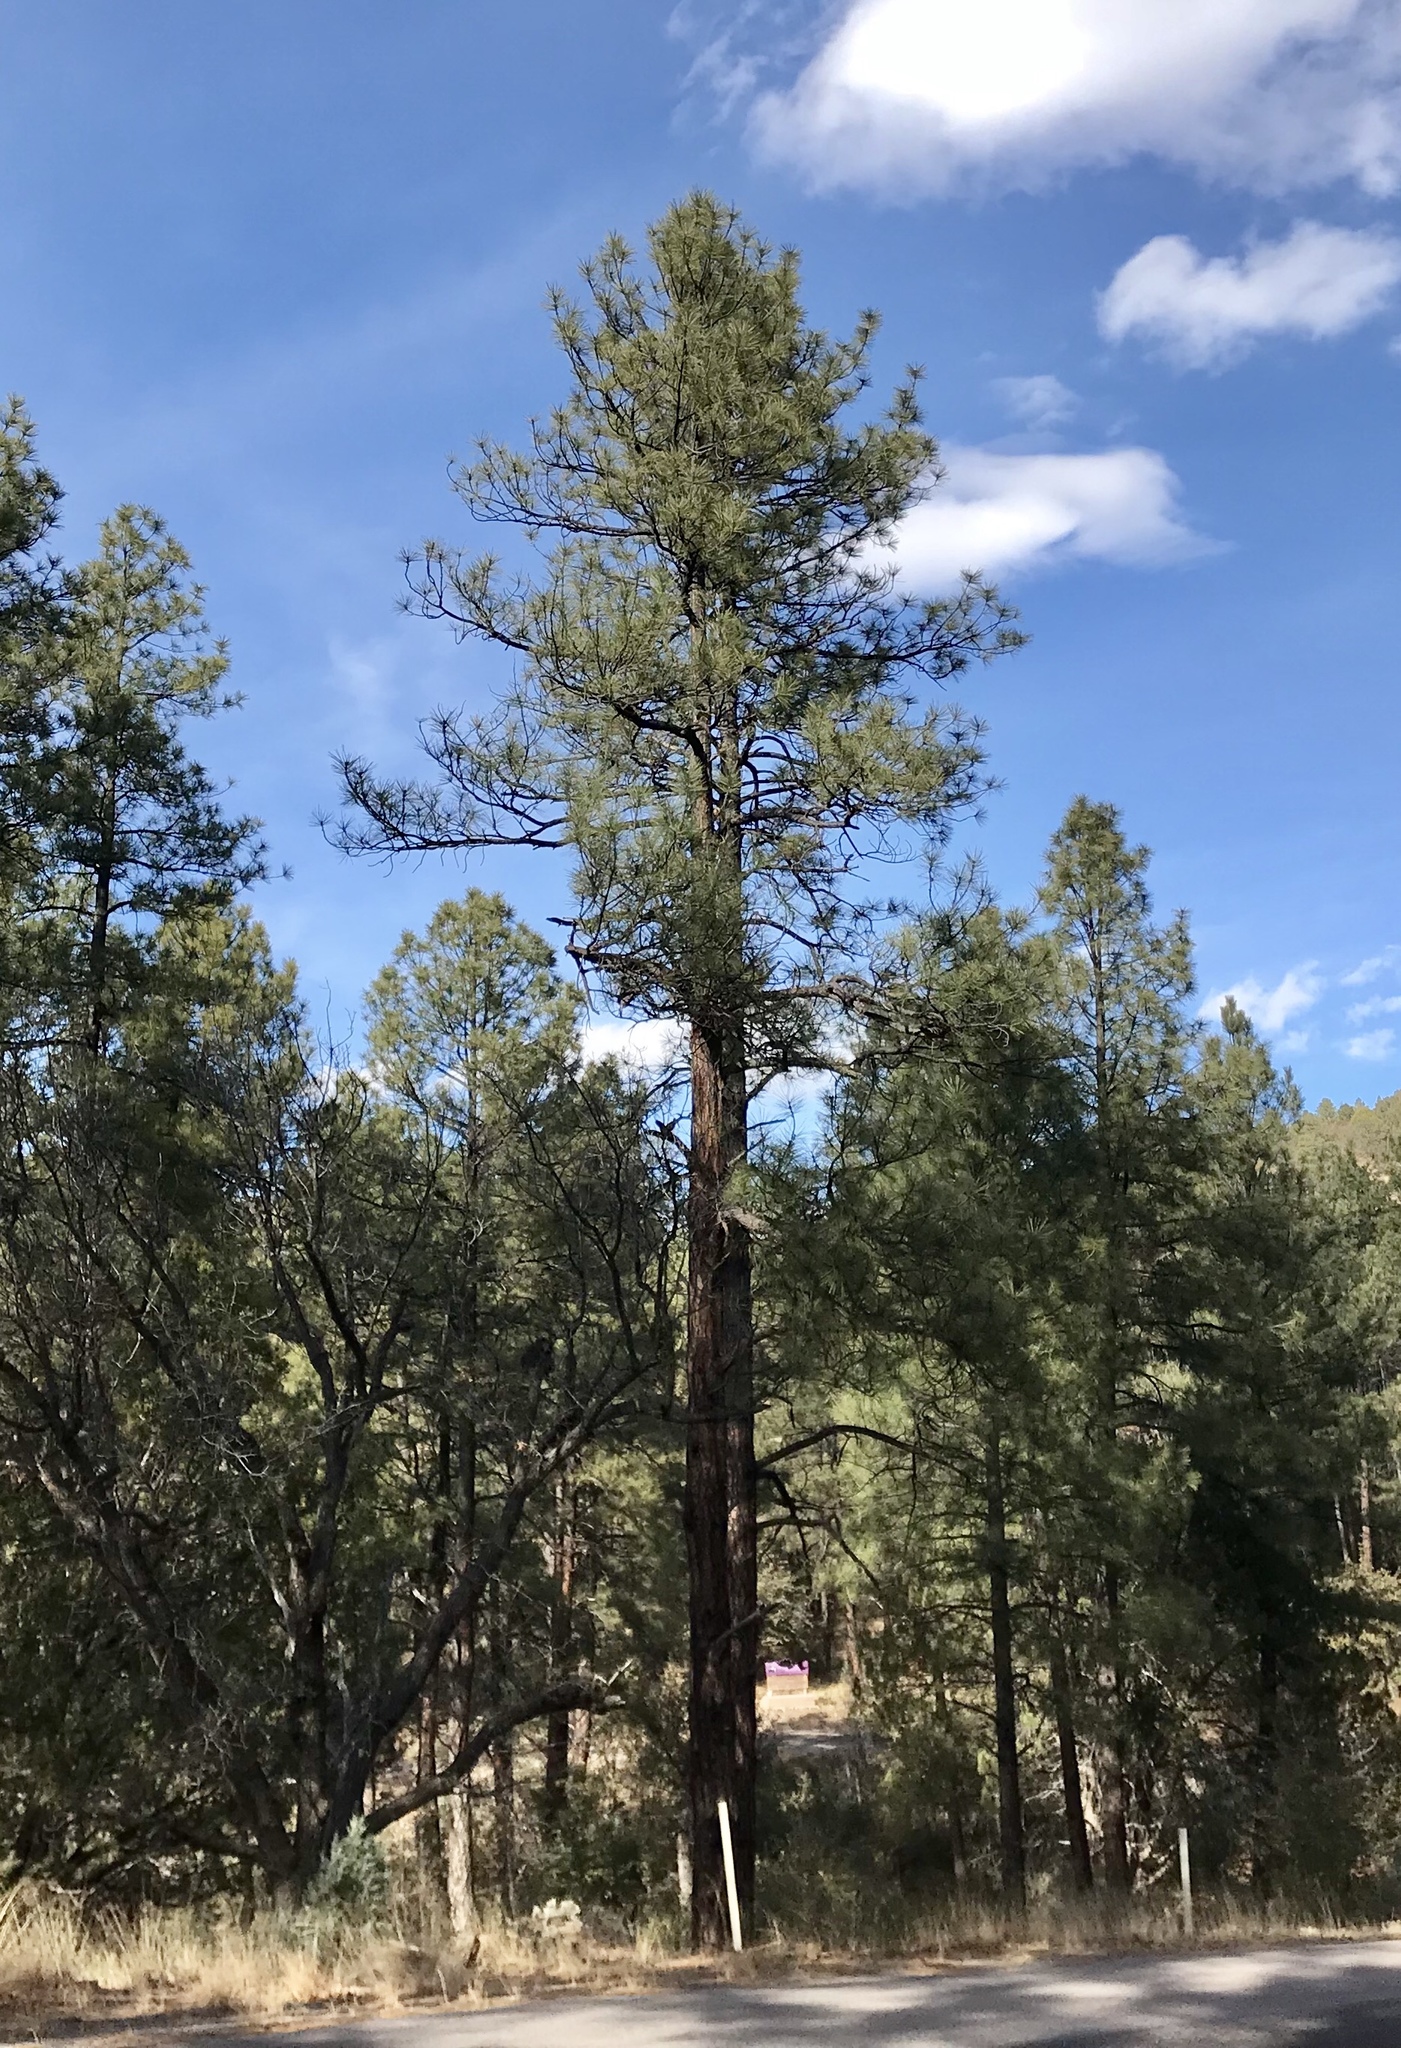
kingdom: Plantae
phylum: Tracheophyta
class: Pinopsida
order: Pinales
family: Pinaceae
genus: Pinus
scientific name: Pinus ponderosa
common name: Western yellow-pine
